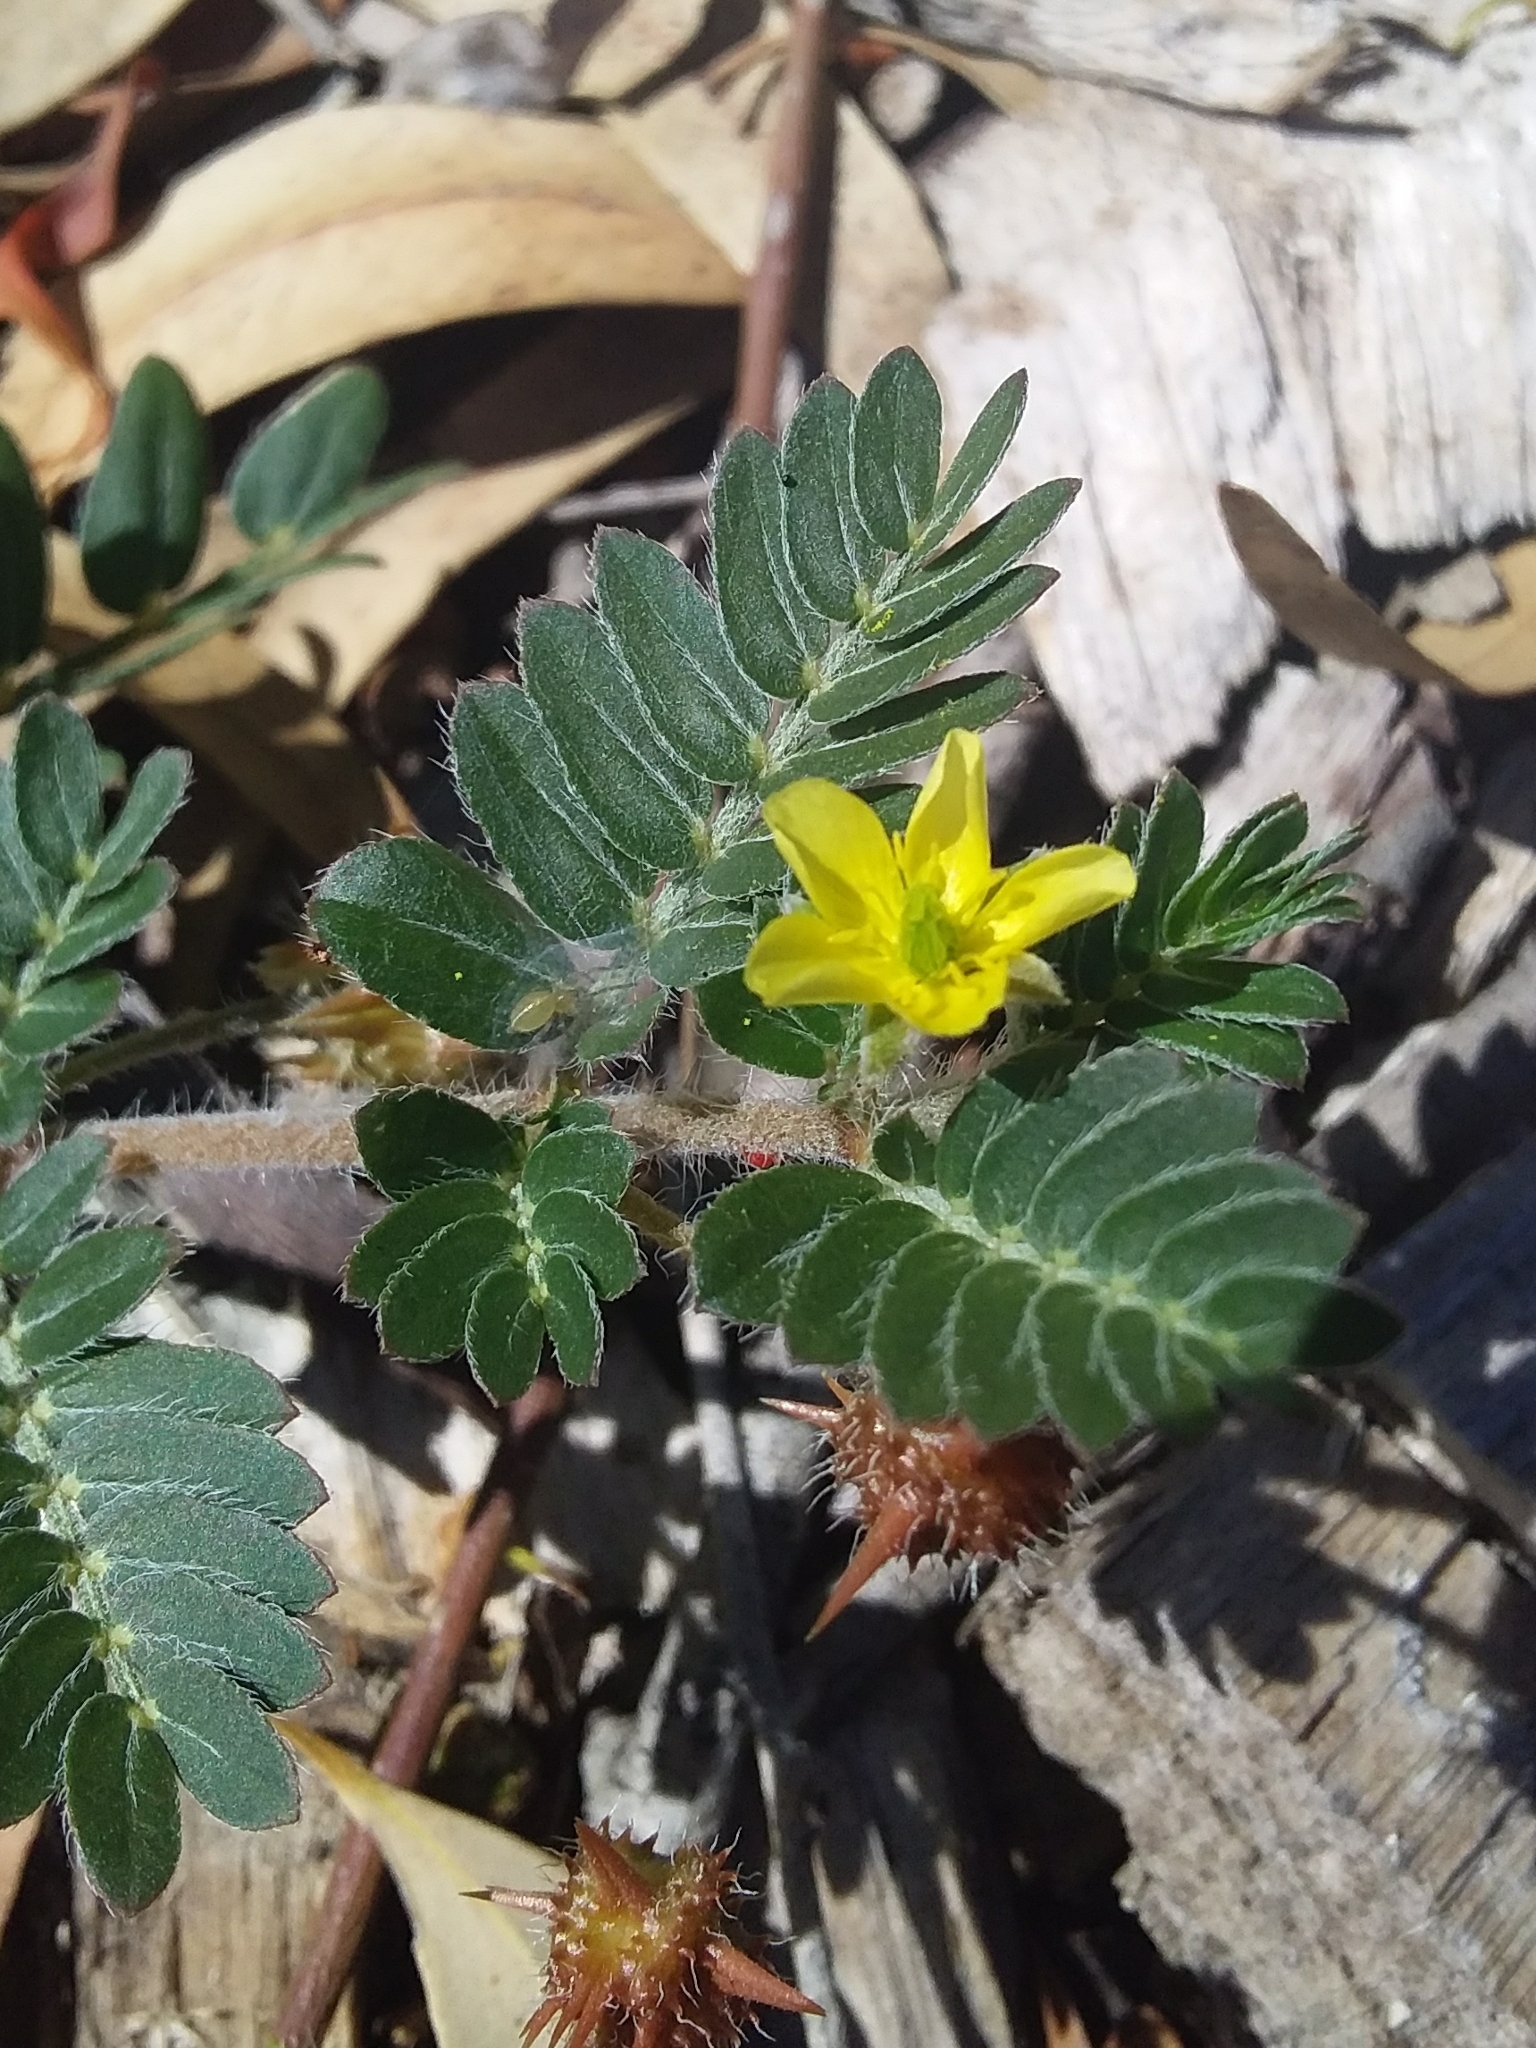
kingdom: Plantae
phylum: Tracheophyta
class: Magnoliopsida
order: Zygophyllales
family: Zygophyllaceae
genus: Tribulus
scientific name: Tribulus terrestris
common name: Puncturevine
